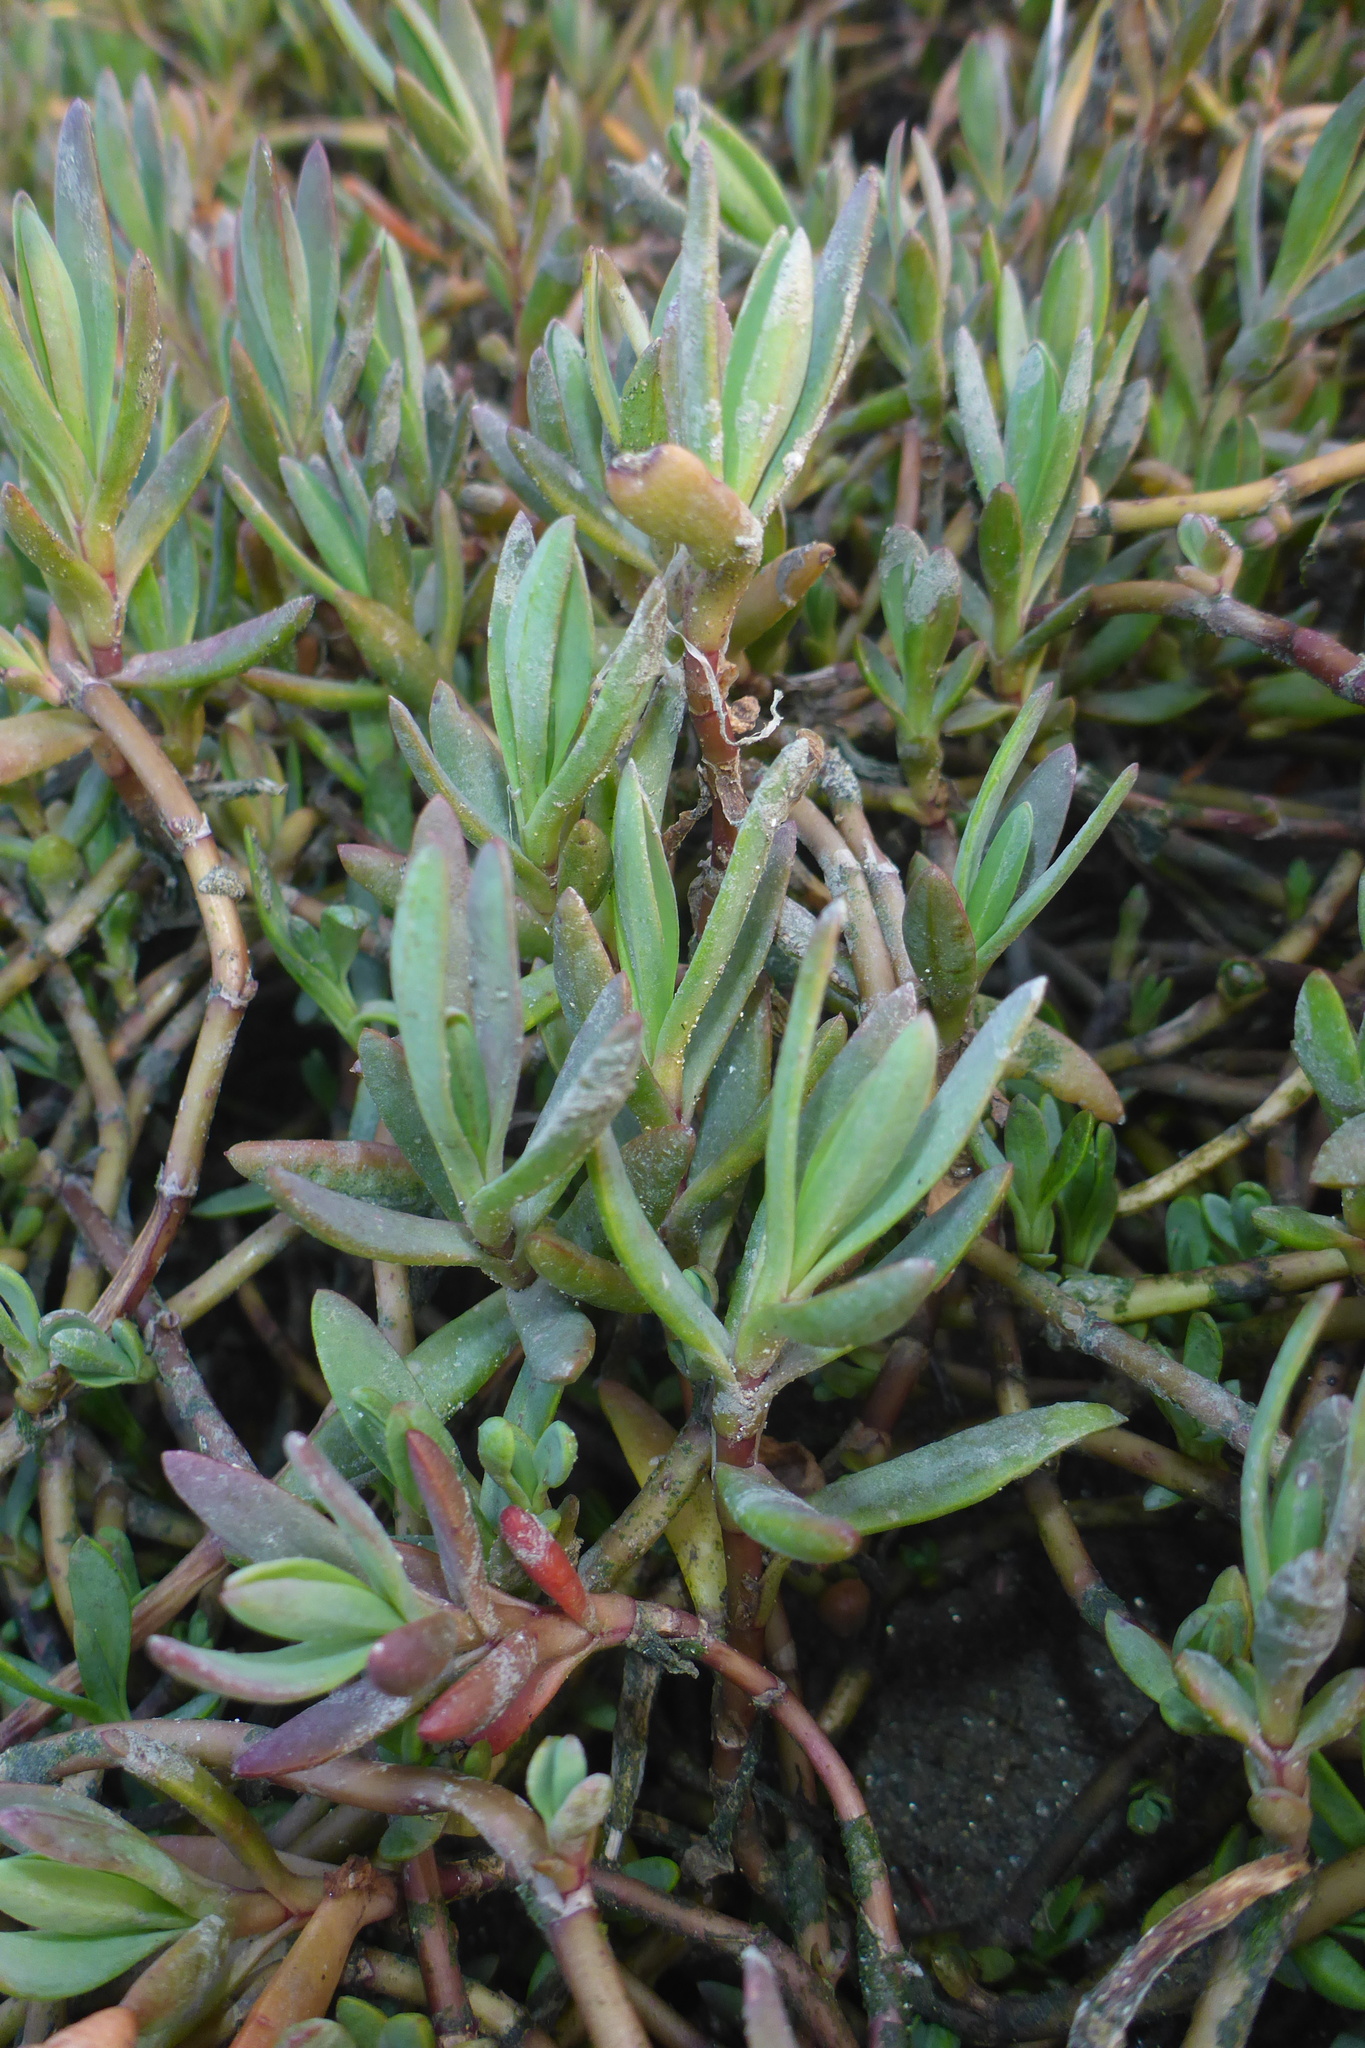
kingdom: Plantae
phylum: Tracheophyta
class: Magnoliopsida
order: Asterales
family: Asteraceae
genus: Jaumea
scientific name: Jaumea carnosa
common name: Fleshy jaumea
